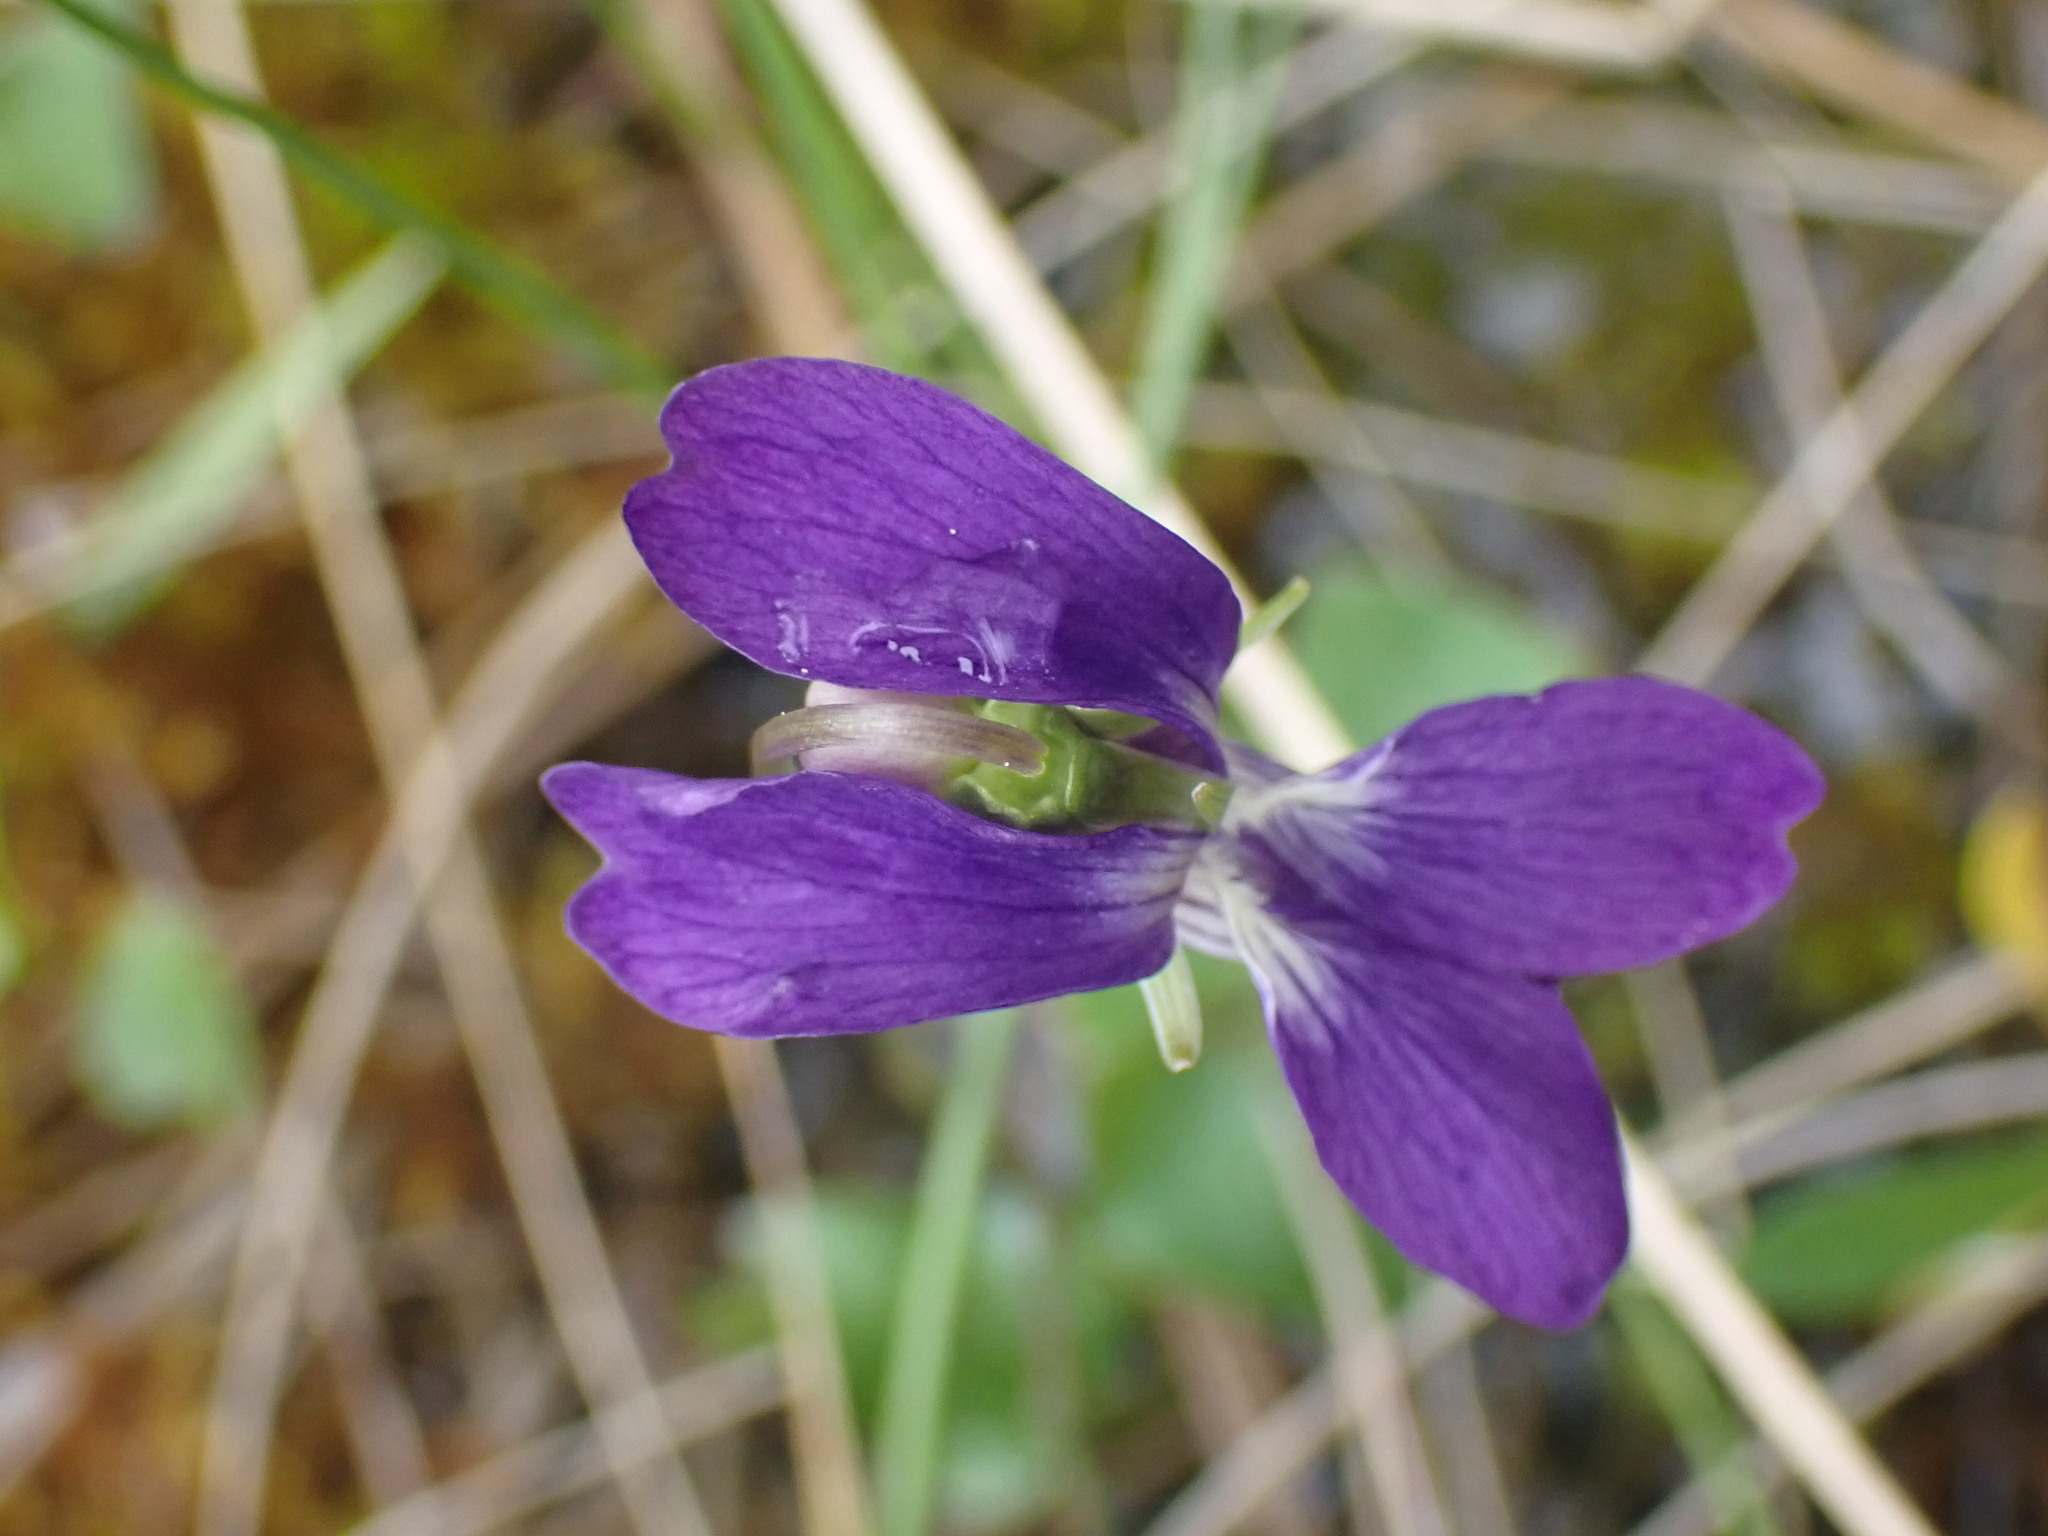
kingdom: Plantae
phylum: Tracheophyta
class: Magnoliopsida
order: Malpighiales
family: Violaceae
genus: Viola
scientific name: Viola nephrophylla
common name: Blue meadow violet
